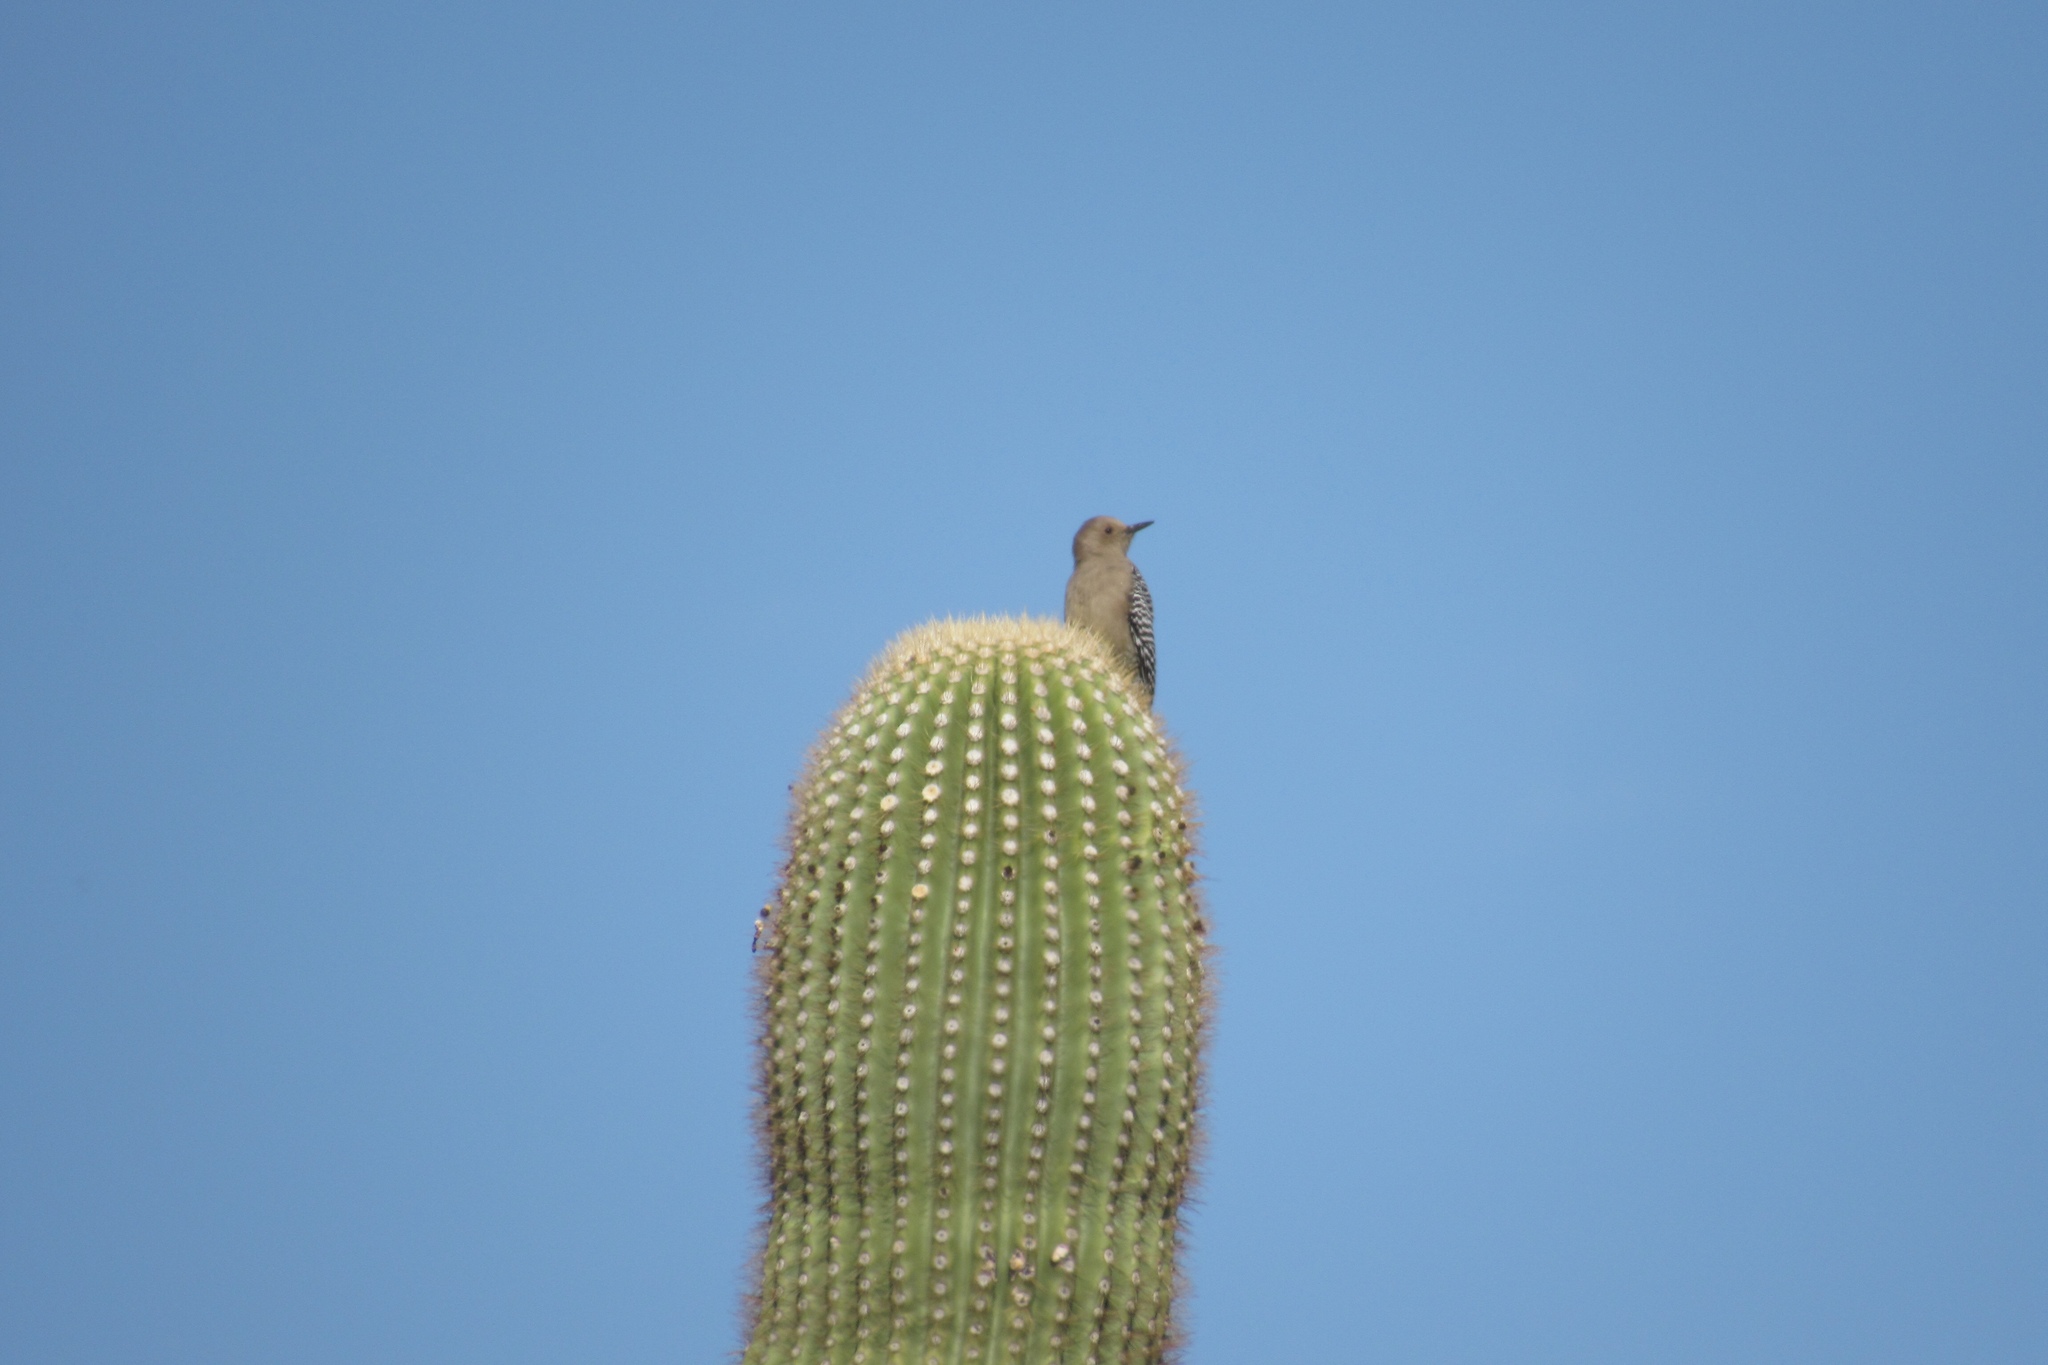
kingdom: Animalia
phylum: Chordata
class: Aves
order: Piciformes
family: Picidae
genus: Melanerpes
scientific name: Melanerpes uropygialis
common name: Gila woodpecker
